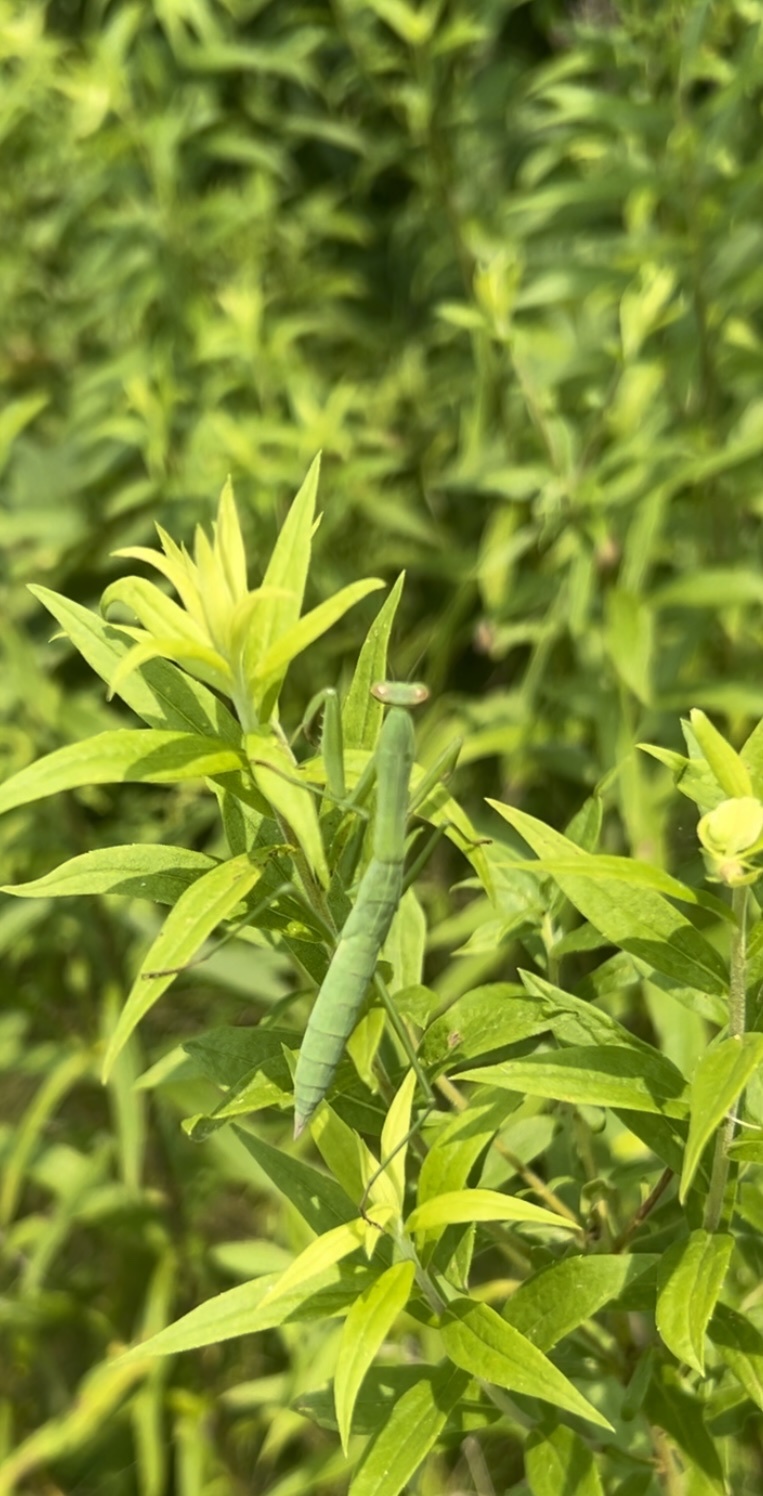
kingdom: Animalia
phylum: Arthropoda
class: Insecta
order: Mantodea
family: Mantidae
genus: Tenodera
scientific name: Tenodera sinensis
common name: Chinese mantis
